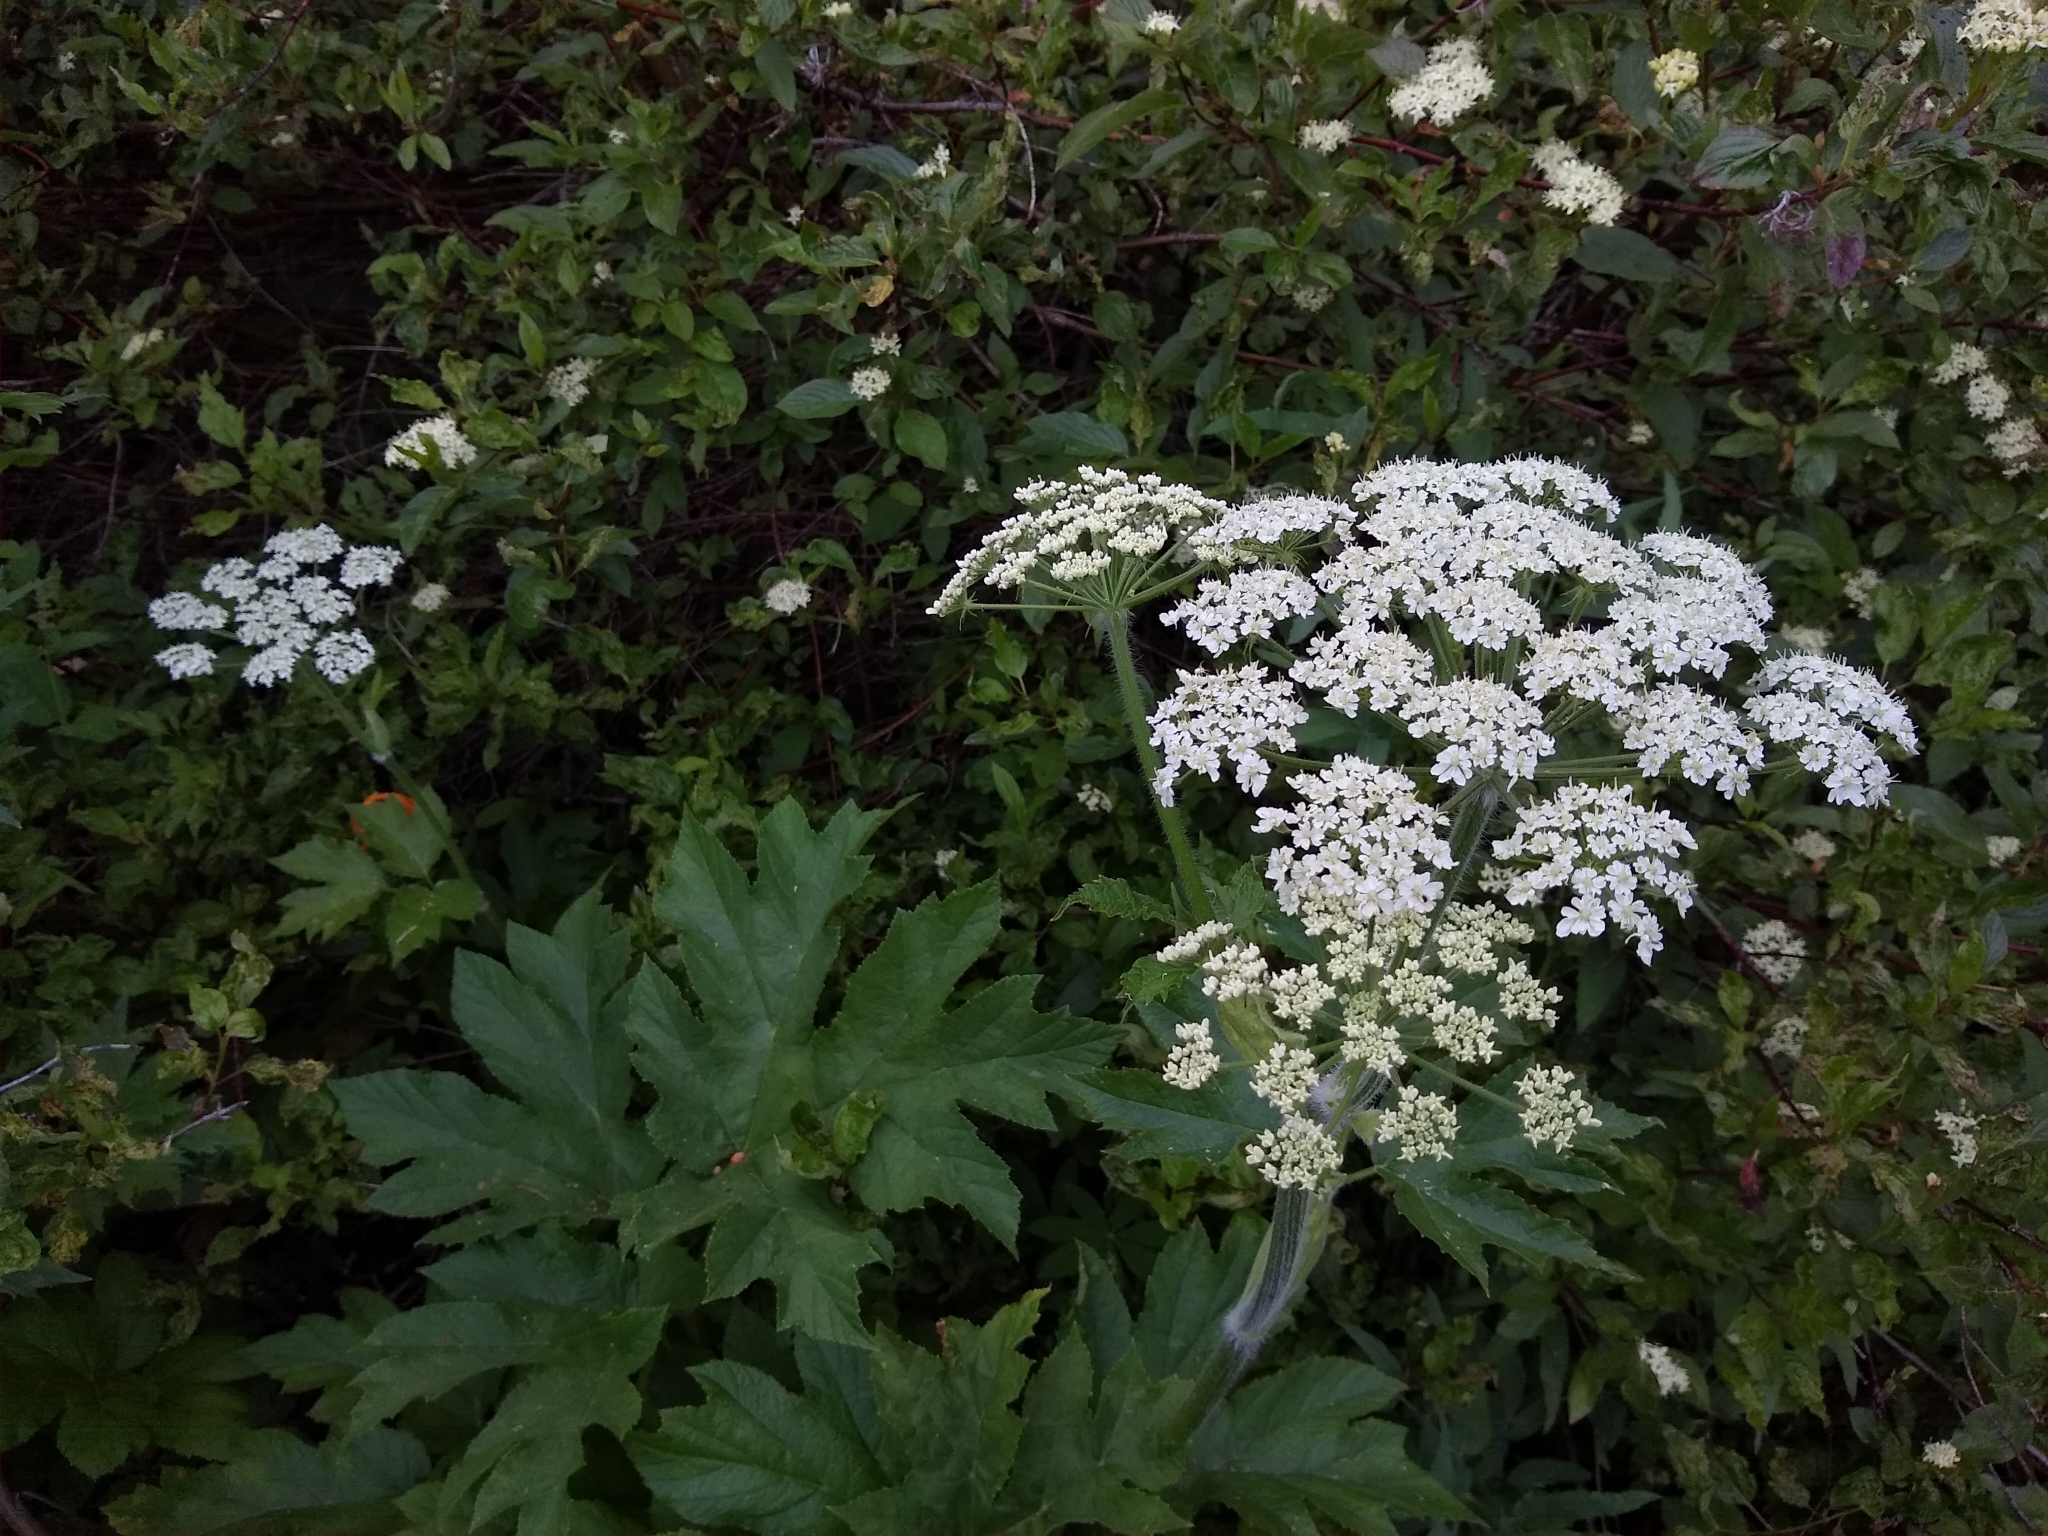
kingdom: Plantae
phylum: Tracheophyta
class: Magnoliopsida
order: Apiales
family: Apiaceae
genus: Heracleum
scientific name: Heracleum maximum
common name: American cow parsnip
